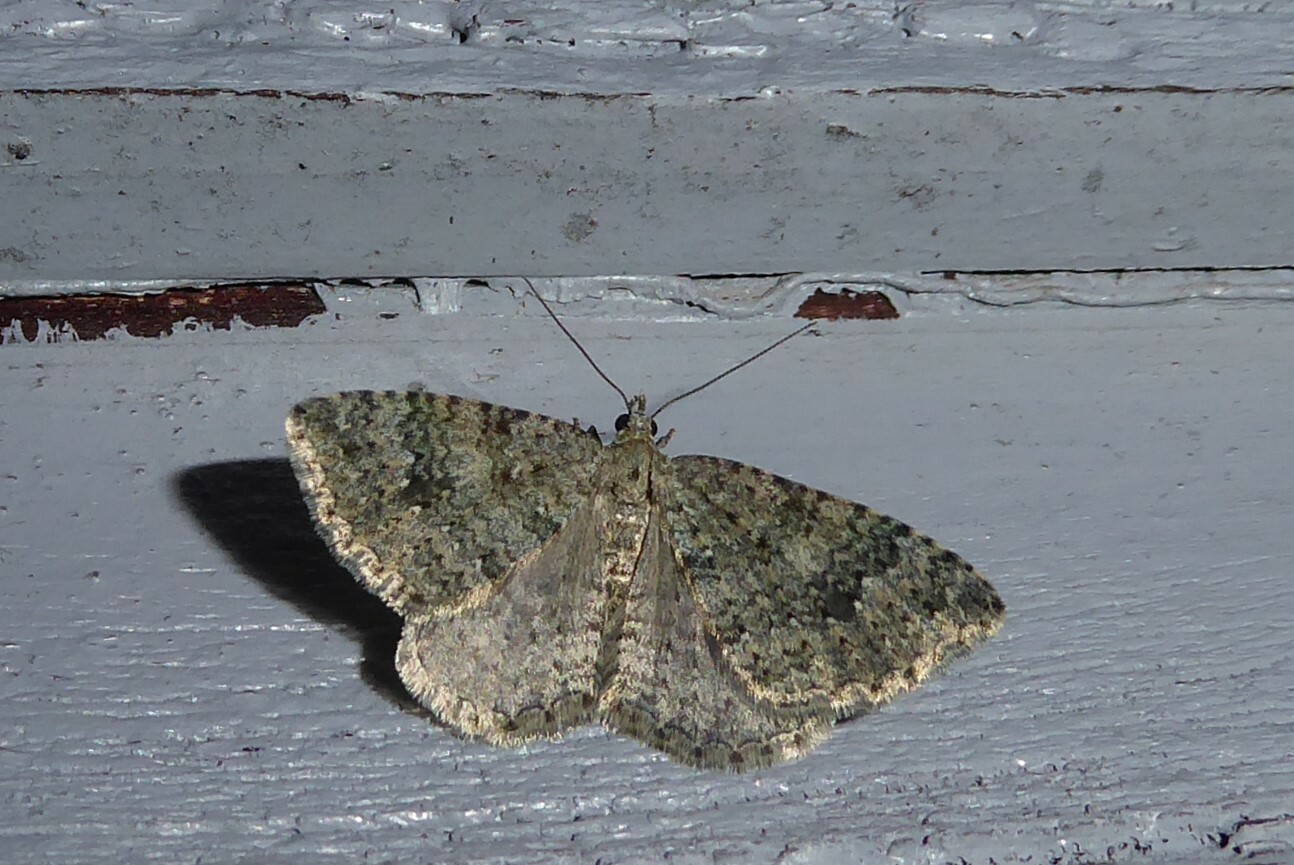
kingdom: Animalia
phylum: Arthropoda
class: Insecta
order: Lepidoptera
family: Geometridae
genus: Helastia
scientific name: Helastia corcularia
